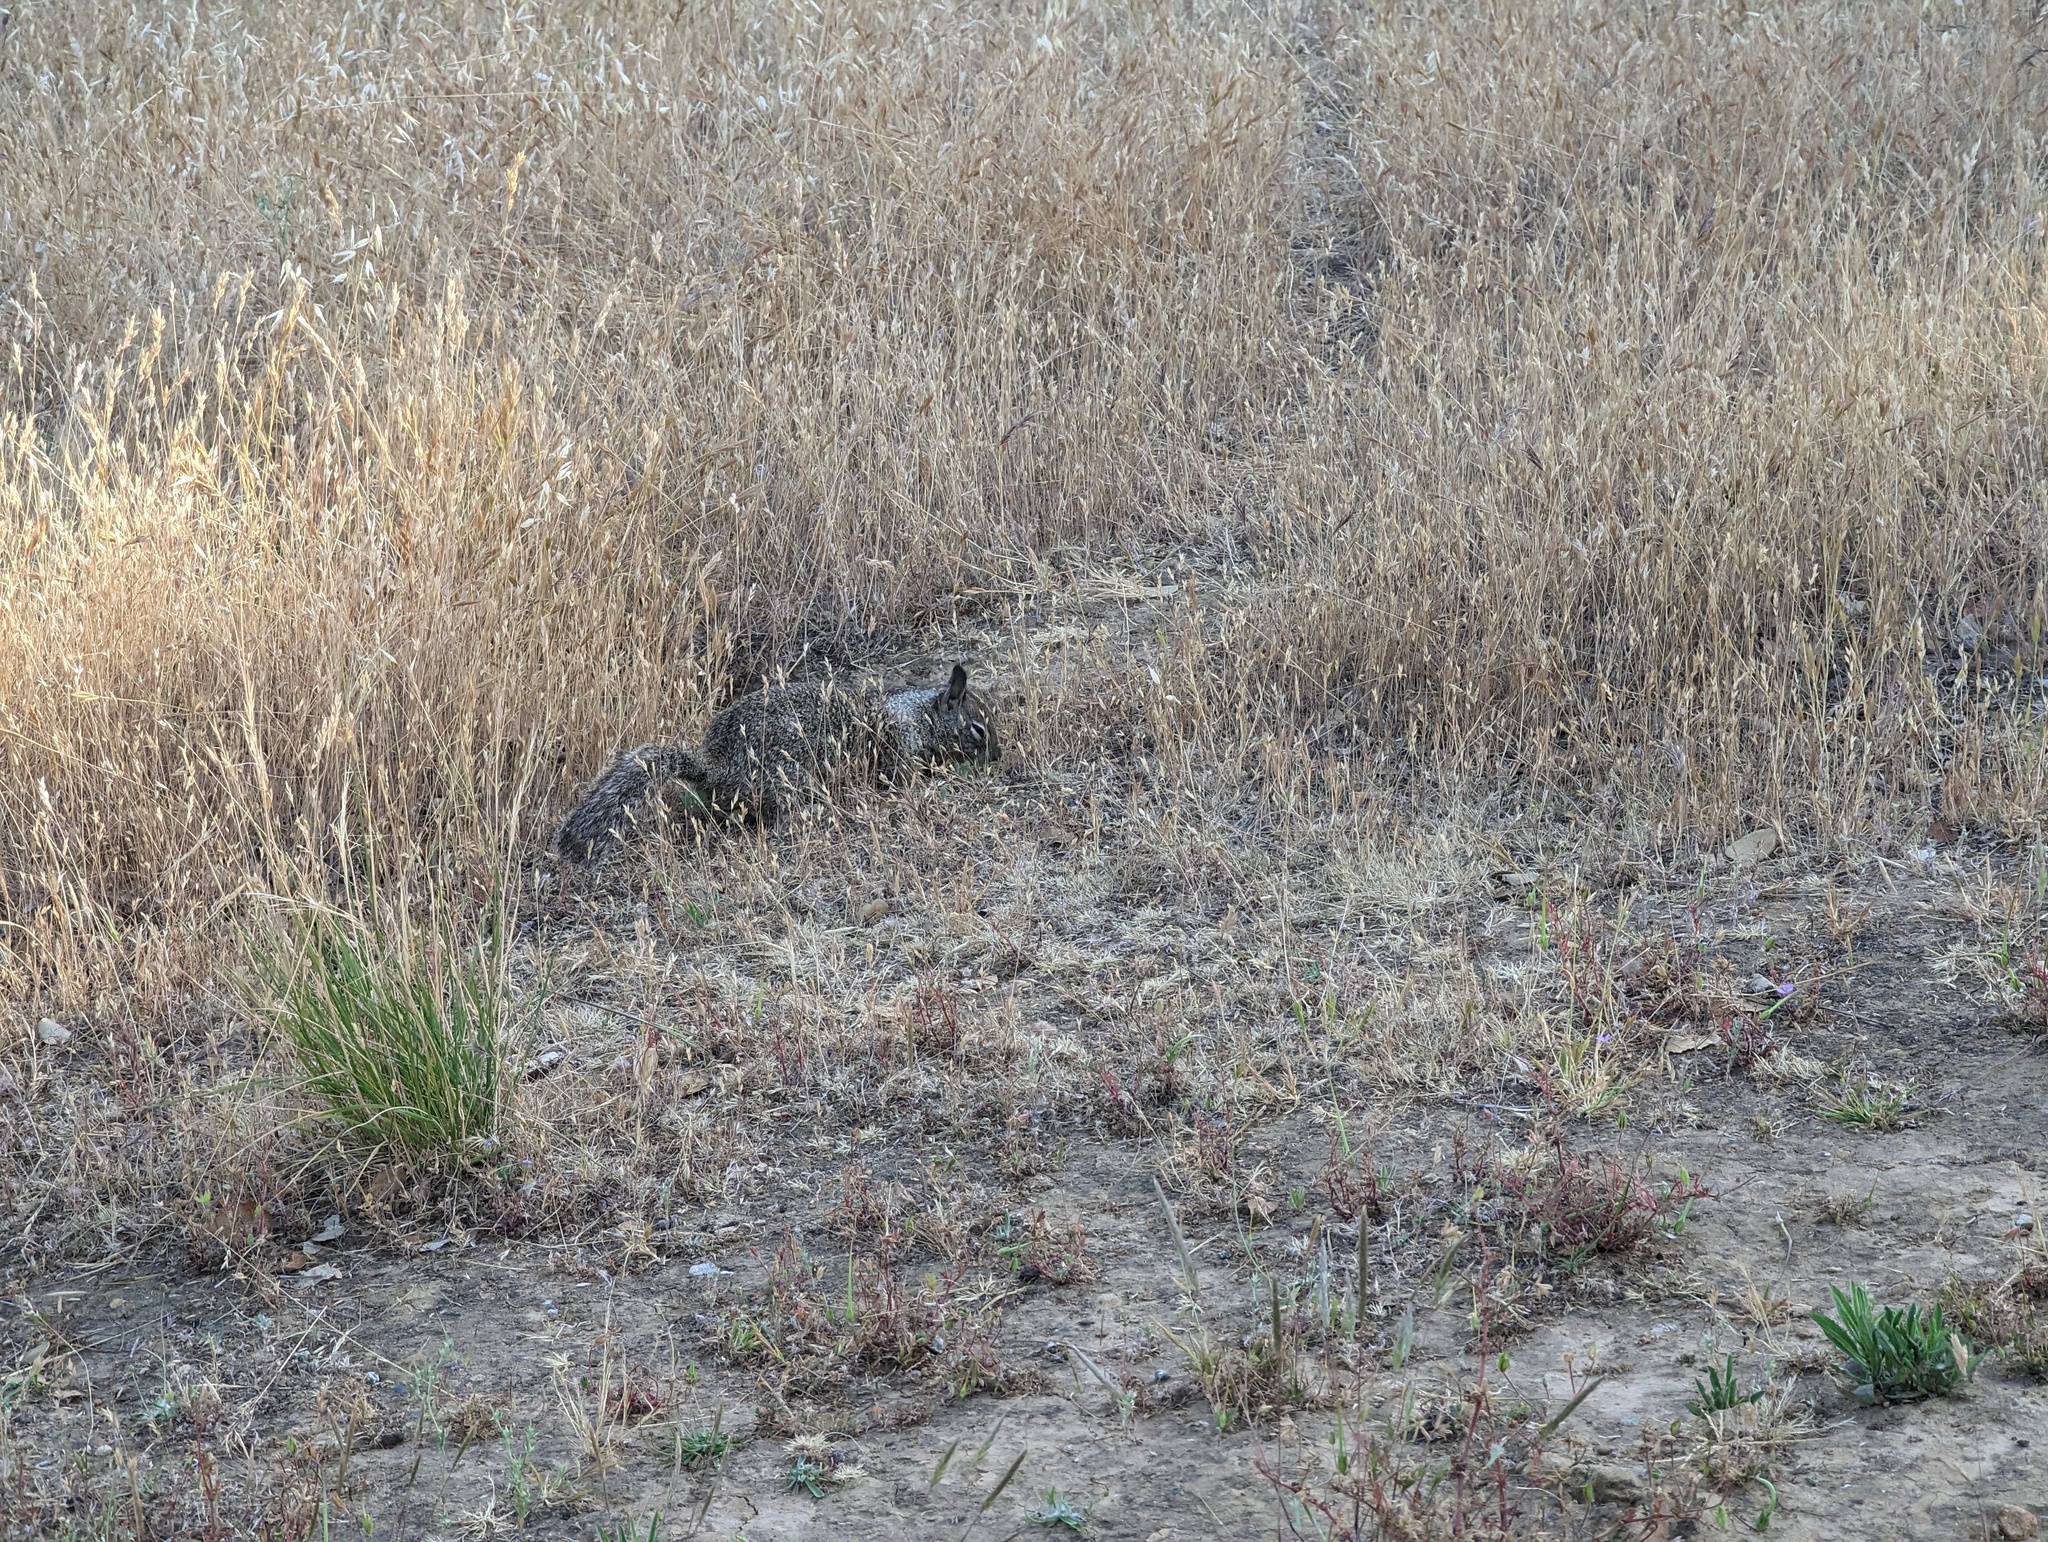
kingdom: Animalia
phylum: Chordata
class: Mammalia
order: Rodentia
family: Sciuridae
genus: Otospermophilus
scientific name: Otospermophilus beecheyi
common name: California ground squirrel
